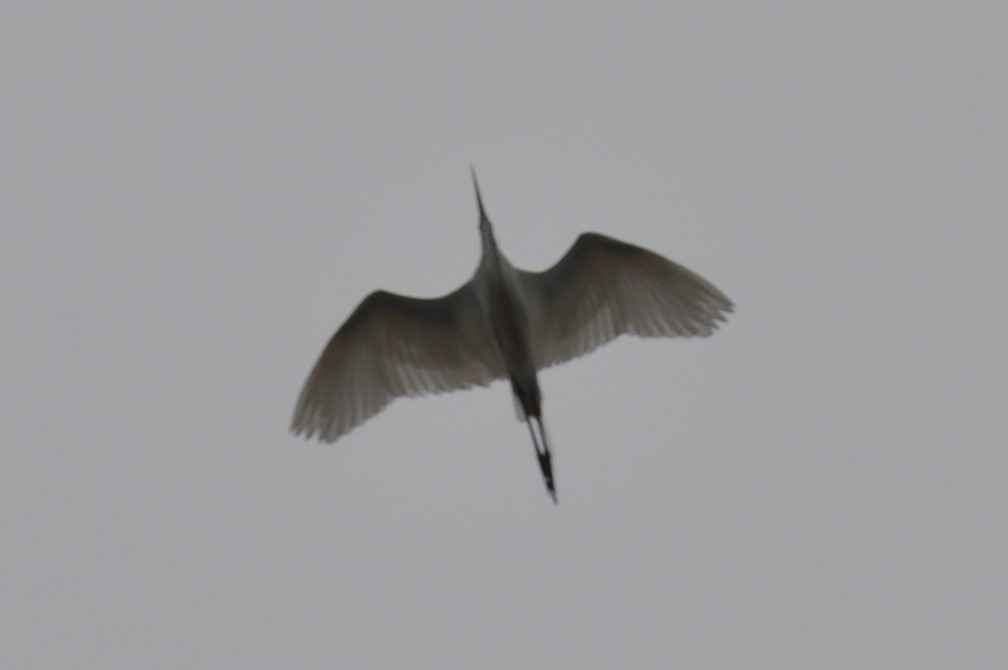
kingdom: Animalia
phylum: Chordata
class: Aves
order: Pelecaniformes
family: Ardeidae
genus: Ardea
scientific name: Ardea alba
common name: Great egret
